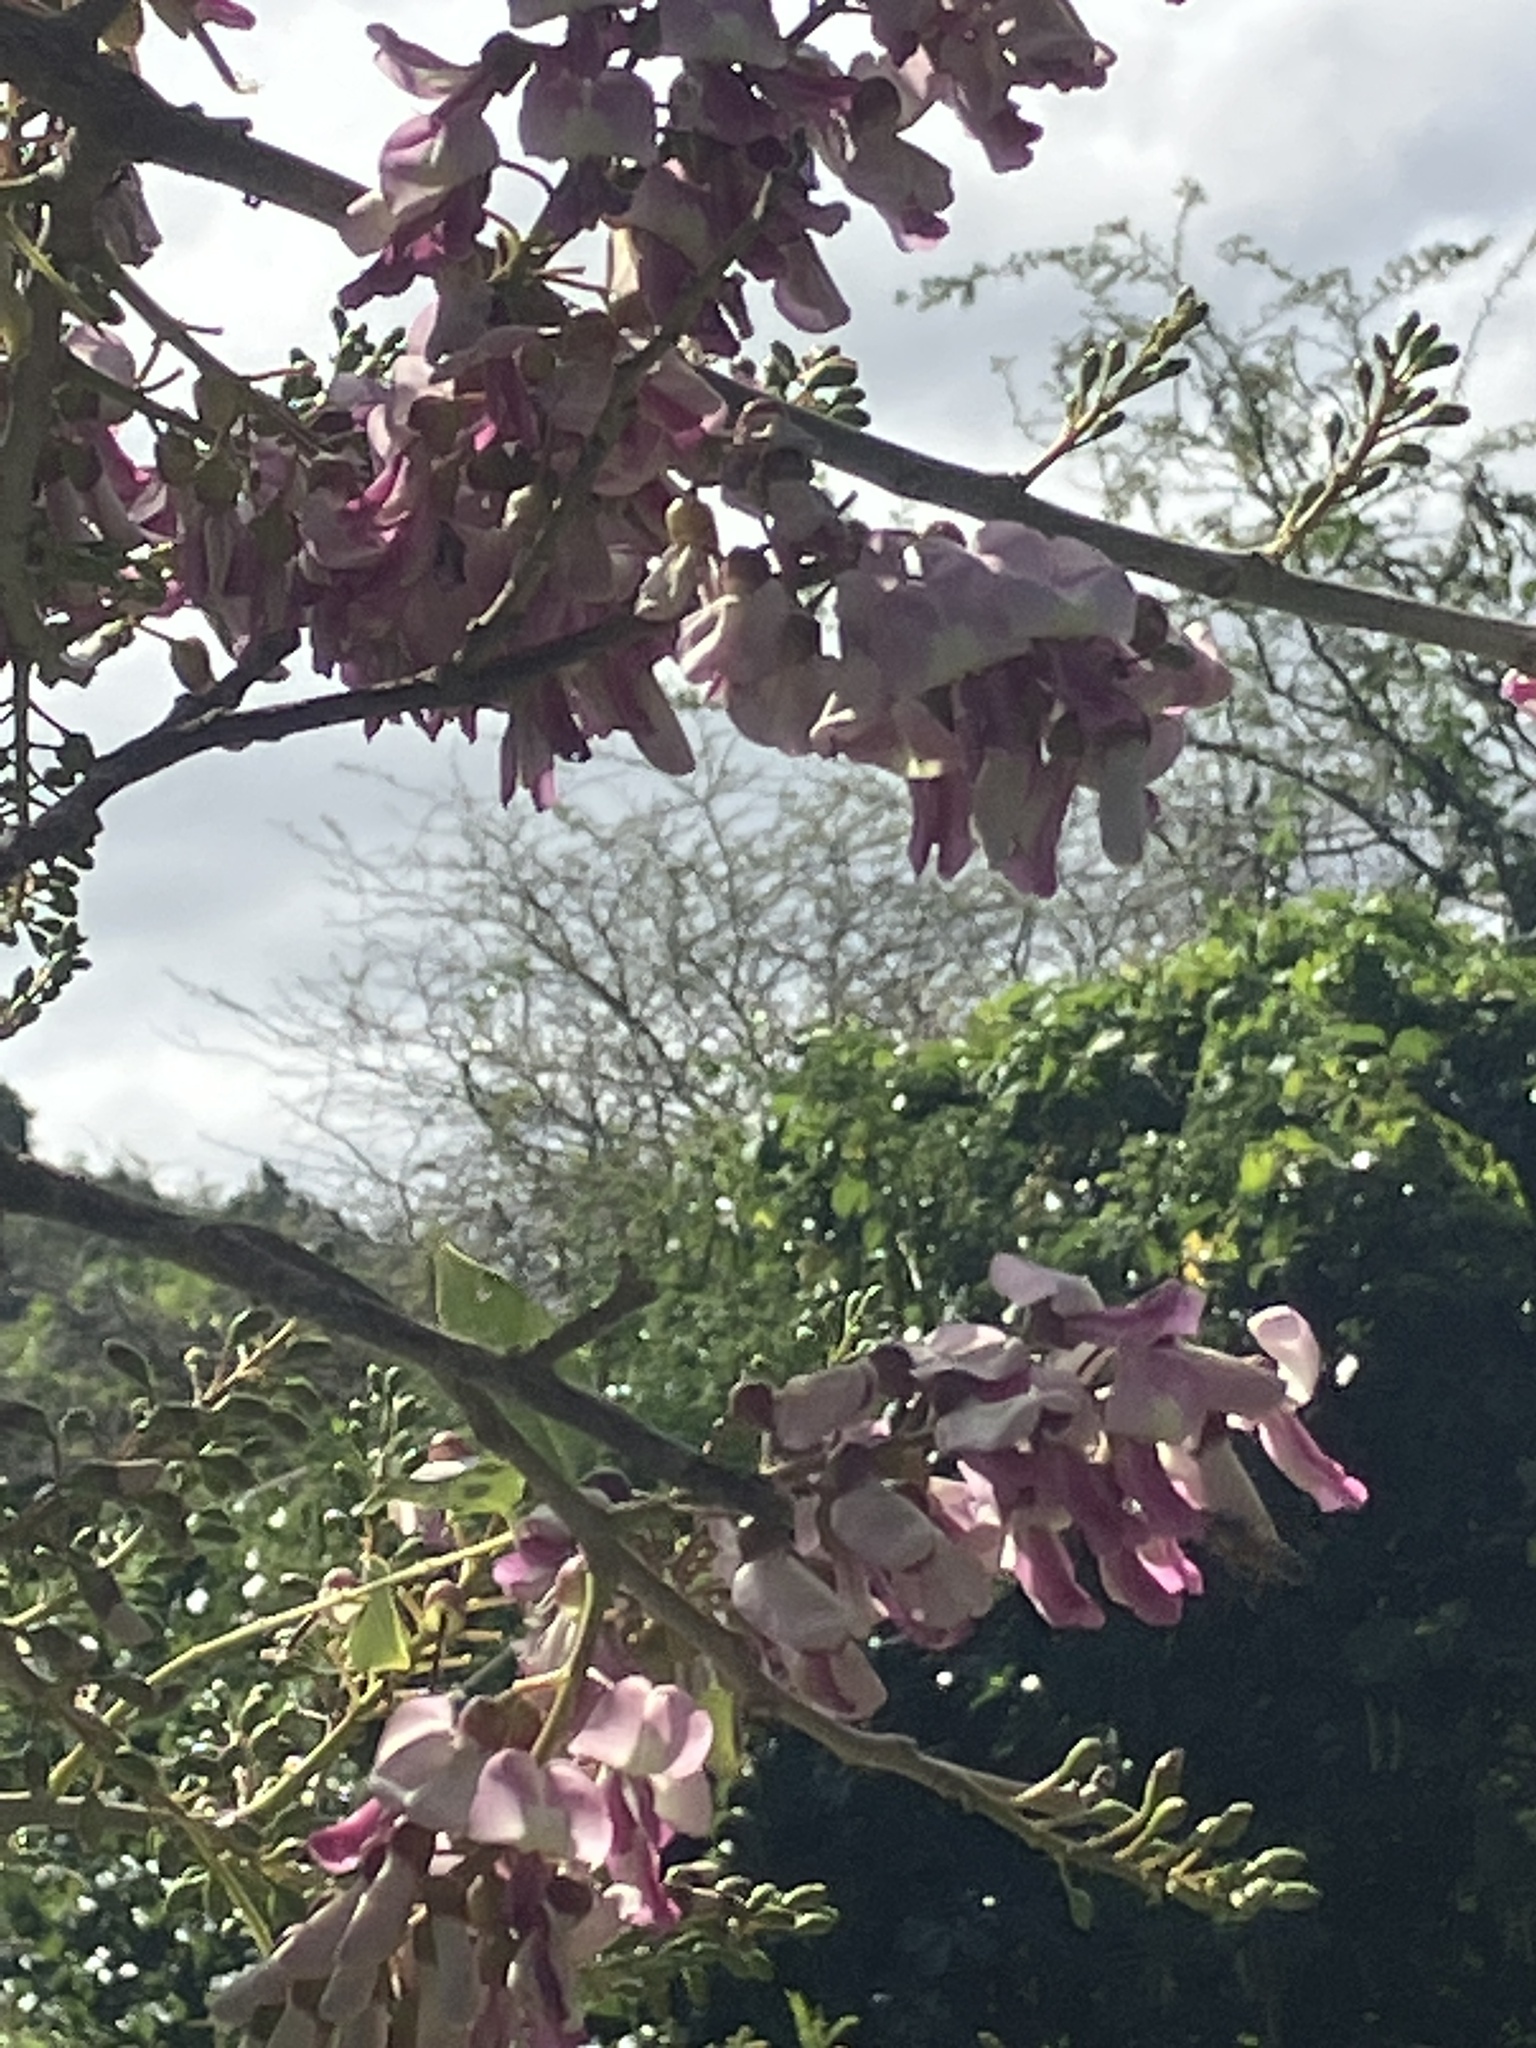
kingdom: Plantae
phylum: Tracheophyta
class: Magnoliopsida
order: Fabales
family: Fabaceae
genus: Gliricidia
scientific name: Gliricidia sepium
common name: Quickstick
